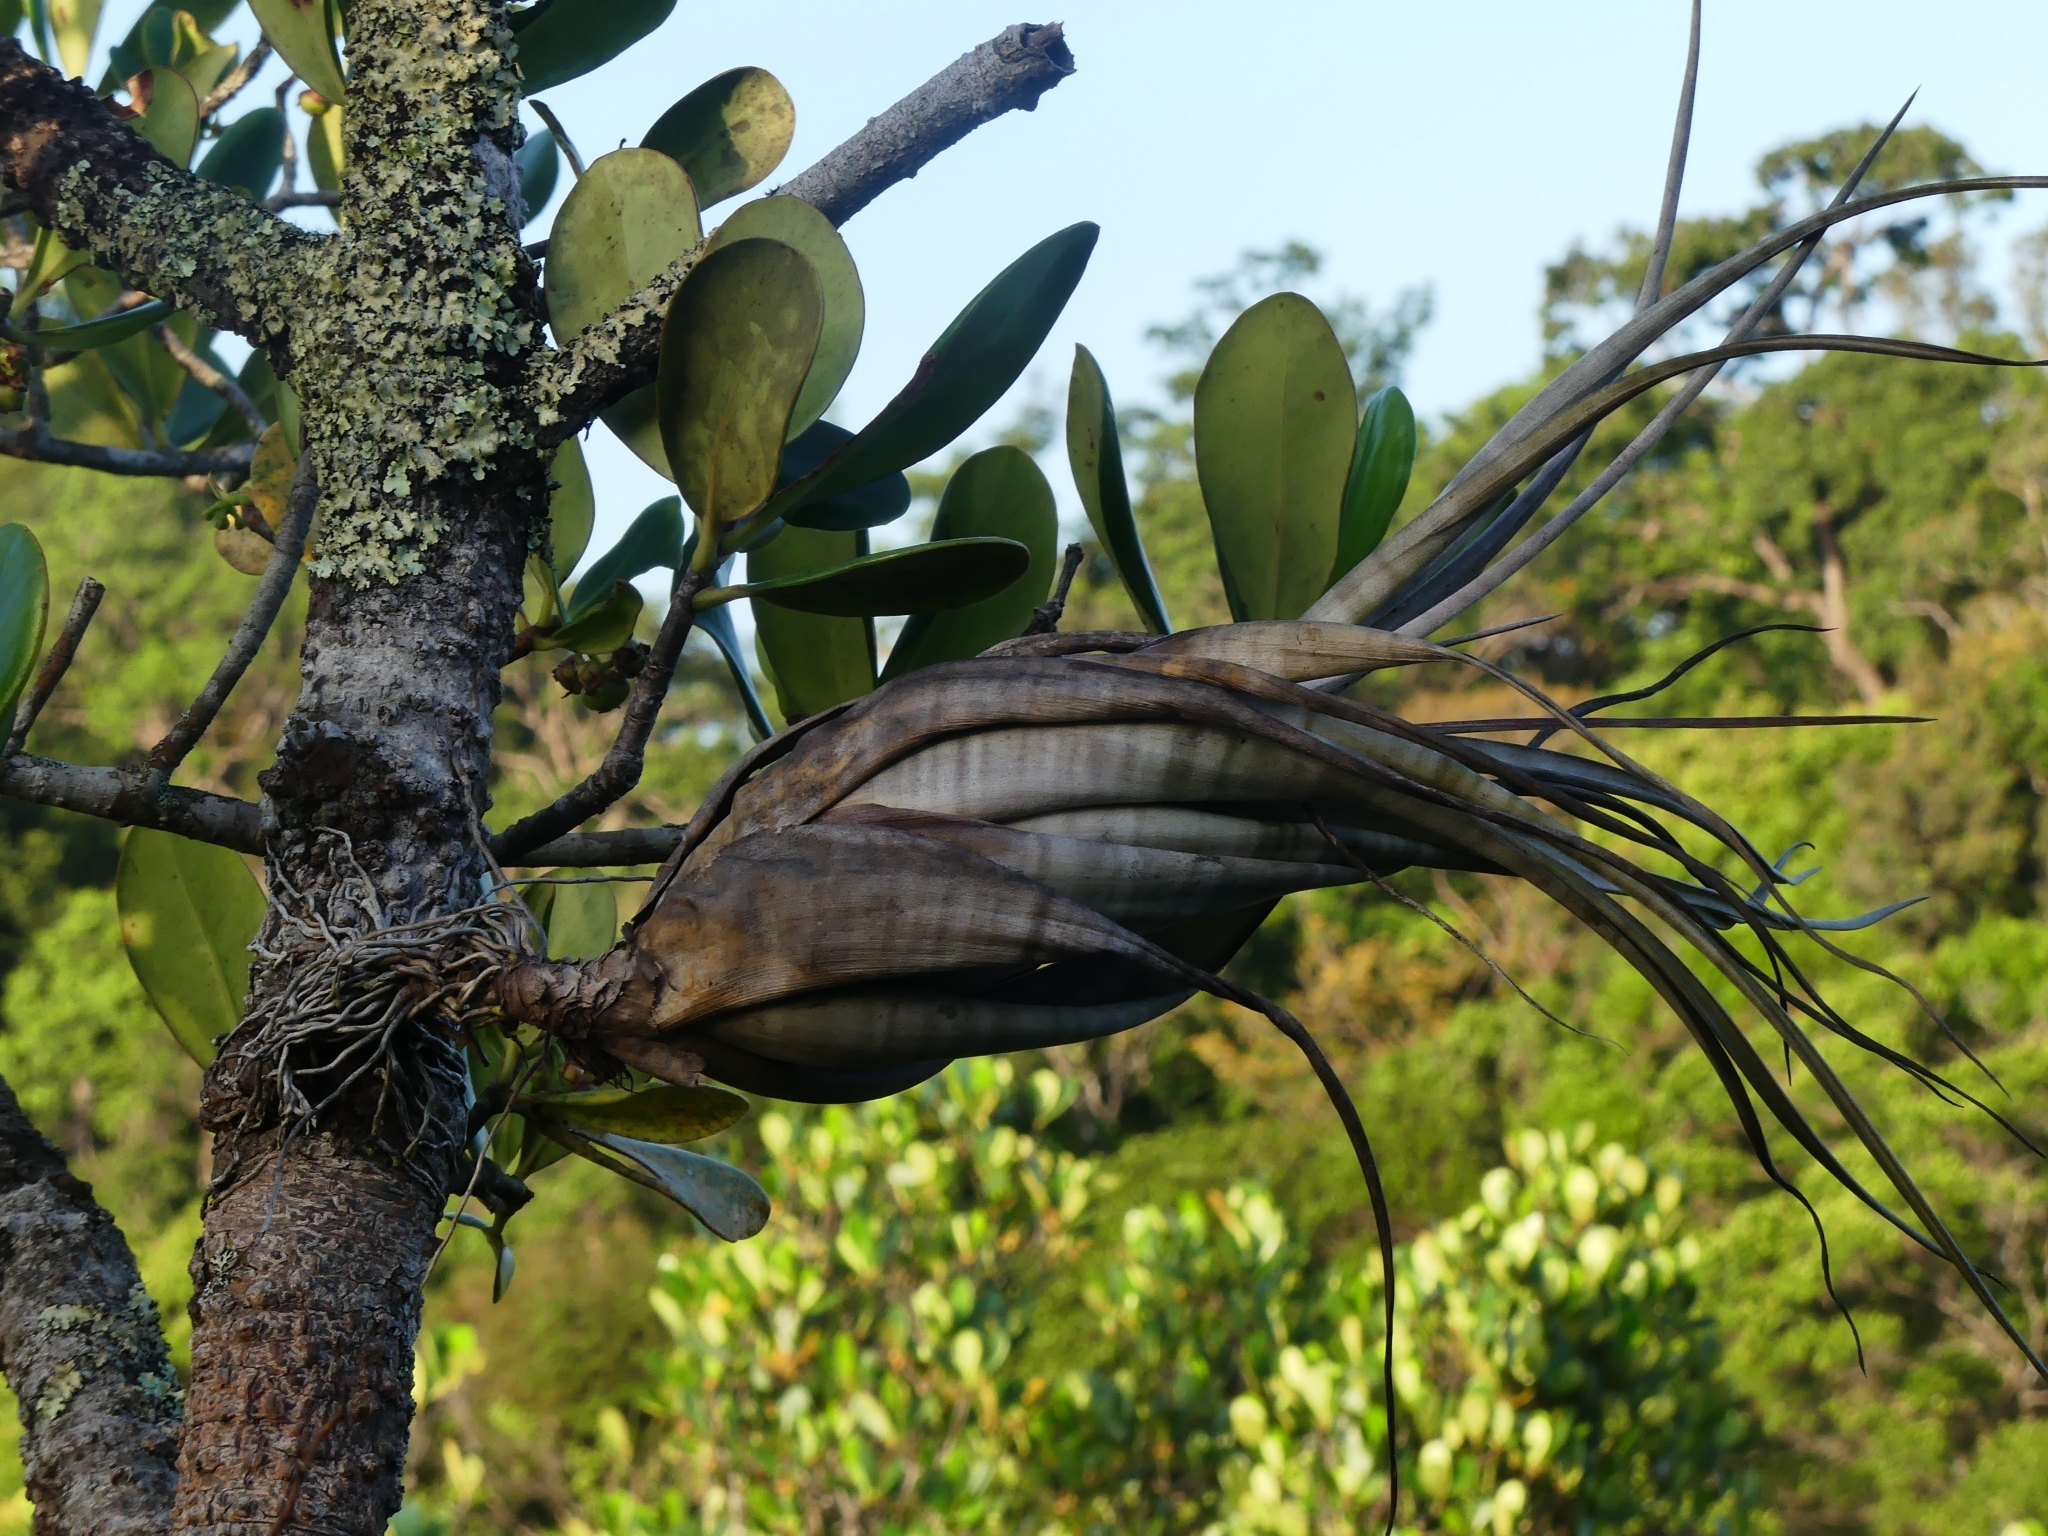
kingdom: Plantae
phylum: Tracheophyta
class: Liliopsida
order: Poales
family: Bromeliaceae
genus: Tillandsia
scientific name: Tillandsia flexuosa
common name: Banded airplant
